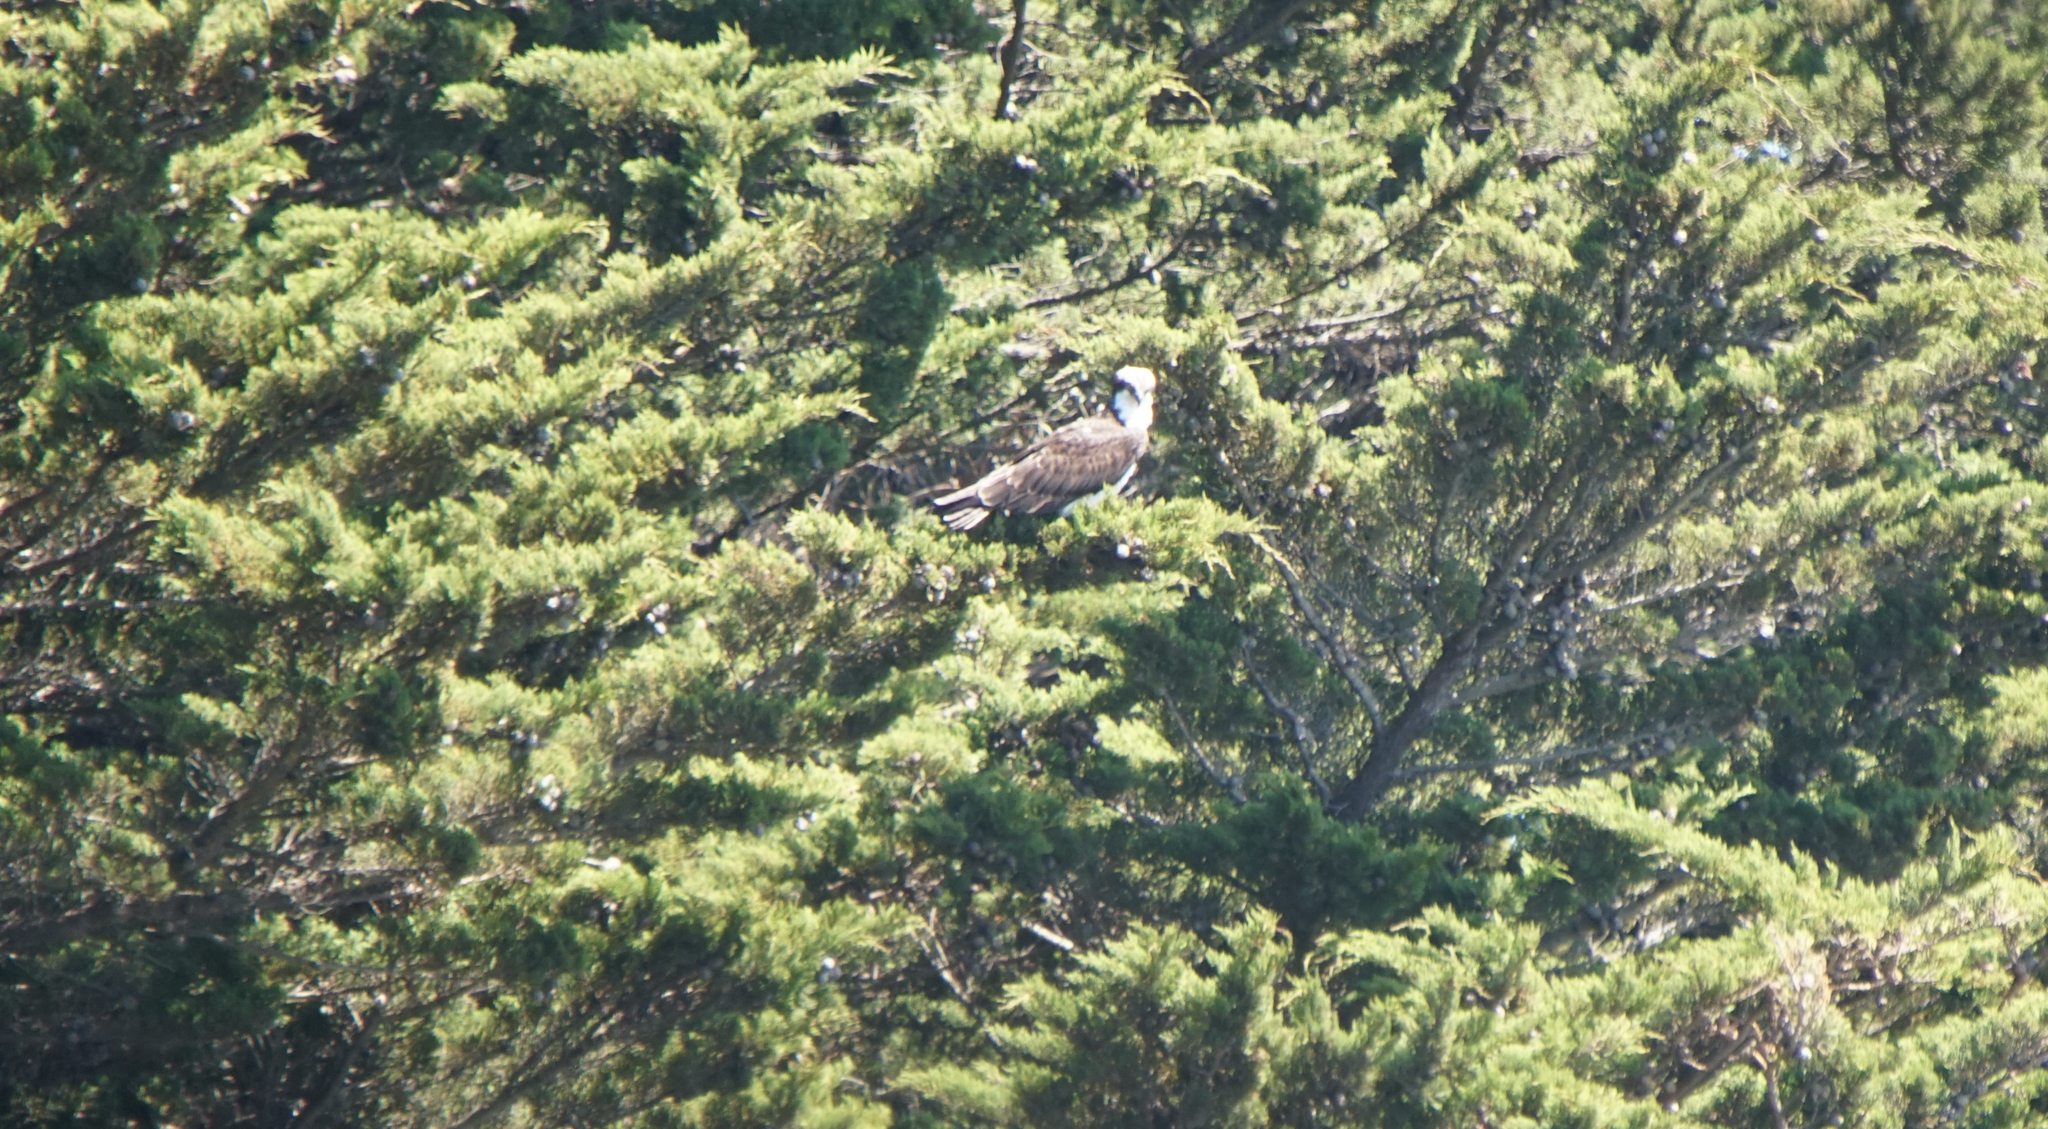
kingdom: Animalia
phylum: Chordata
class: Aves
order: Accipitriformes
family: Pandionidae
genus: Pandion
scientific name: Pandion haliaetus
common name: Osprey
